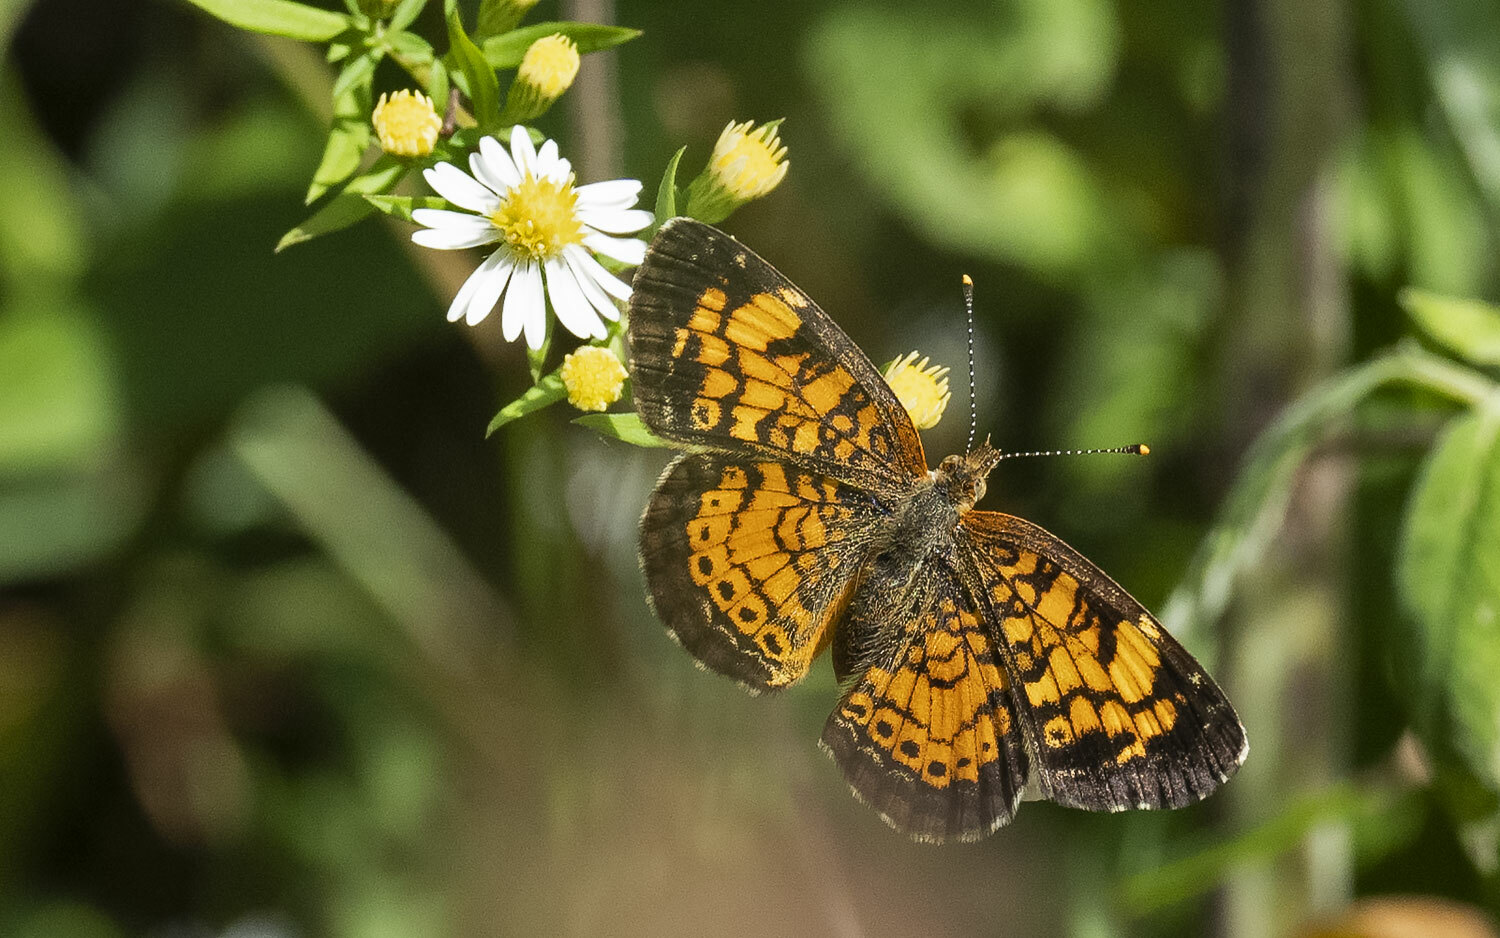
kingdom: Animalia
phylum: Arthropoda
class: Insecta
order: Lepidoptera
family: Nymphalidae
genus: Phyciodes
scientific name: Phyciodes tharos
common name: Pearl crescent
